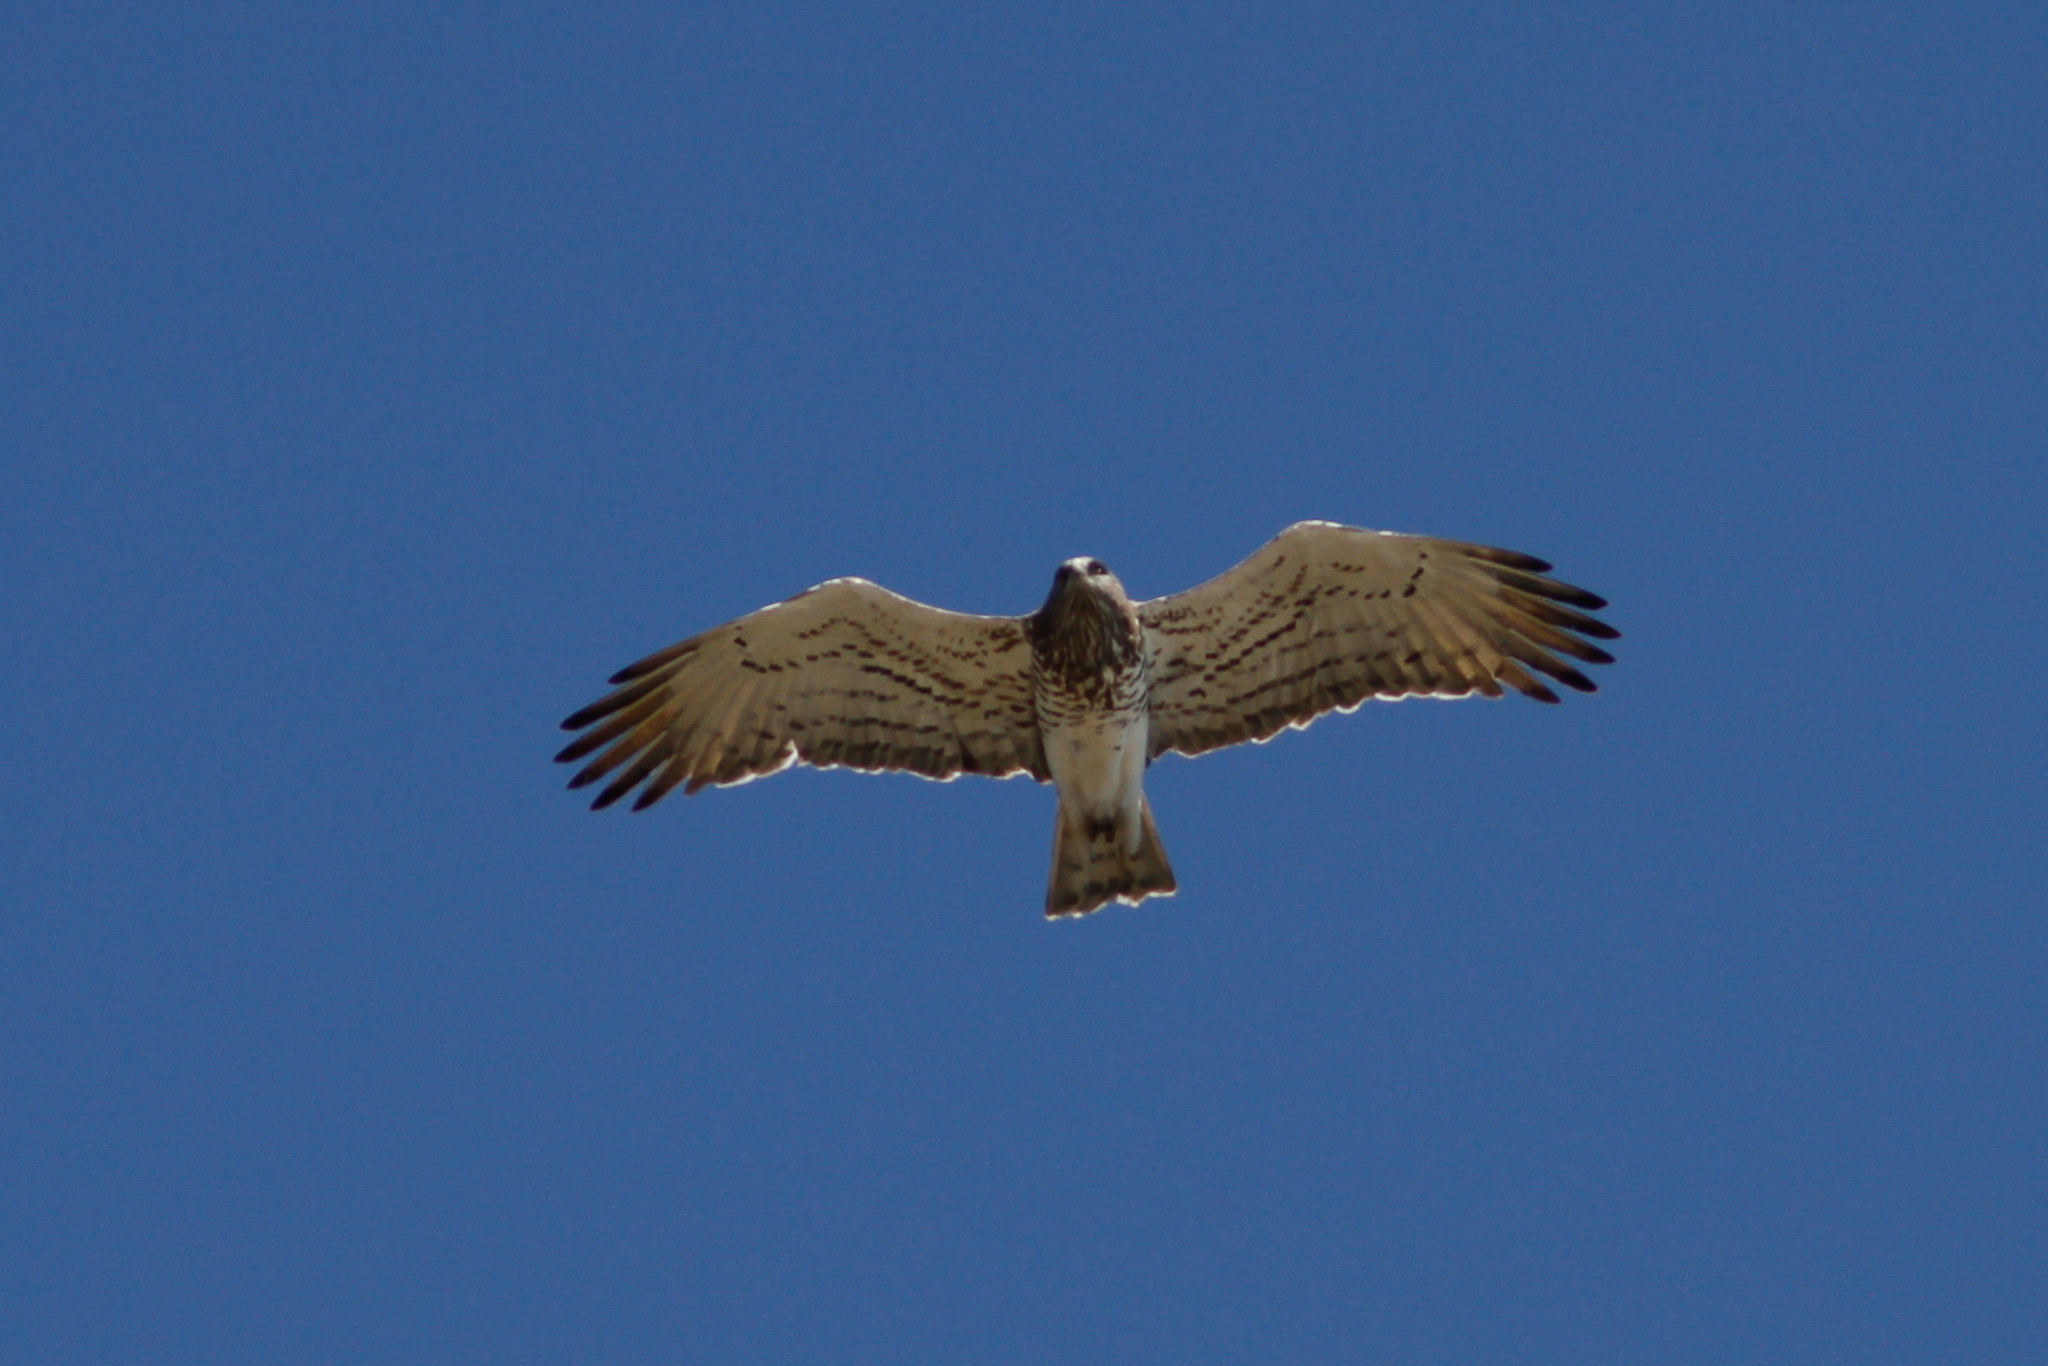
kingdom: Animalia
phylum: Chordata
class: Aves
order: Accipitriformes
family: Accipitridae
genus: Circaetus
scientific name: Circaetus gallicus
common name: Short-toed snake eagle
